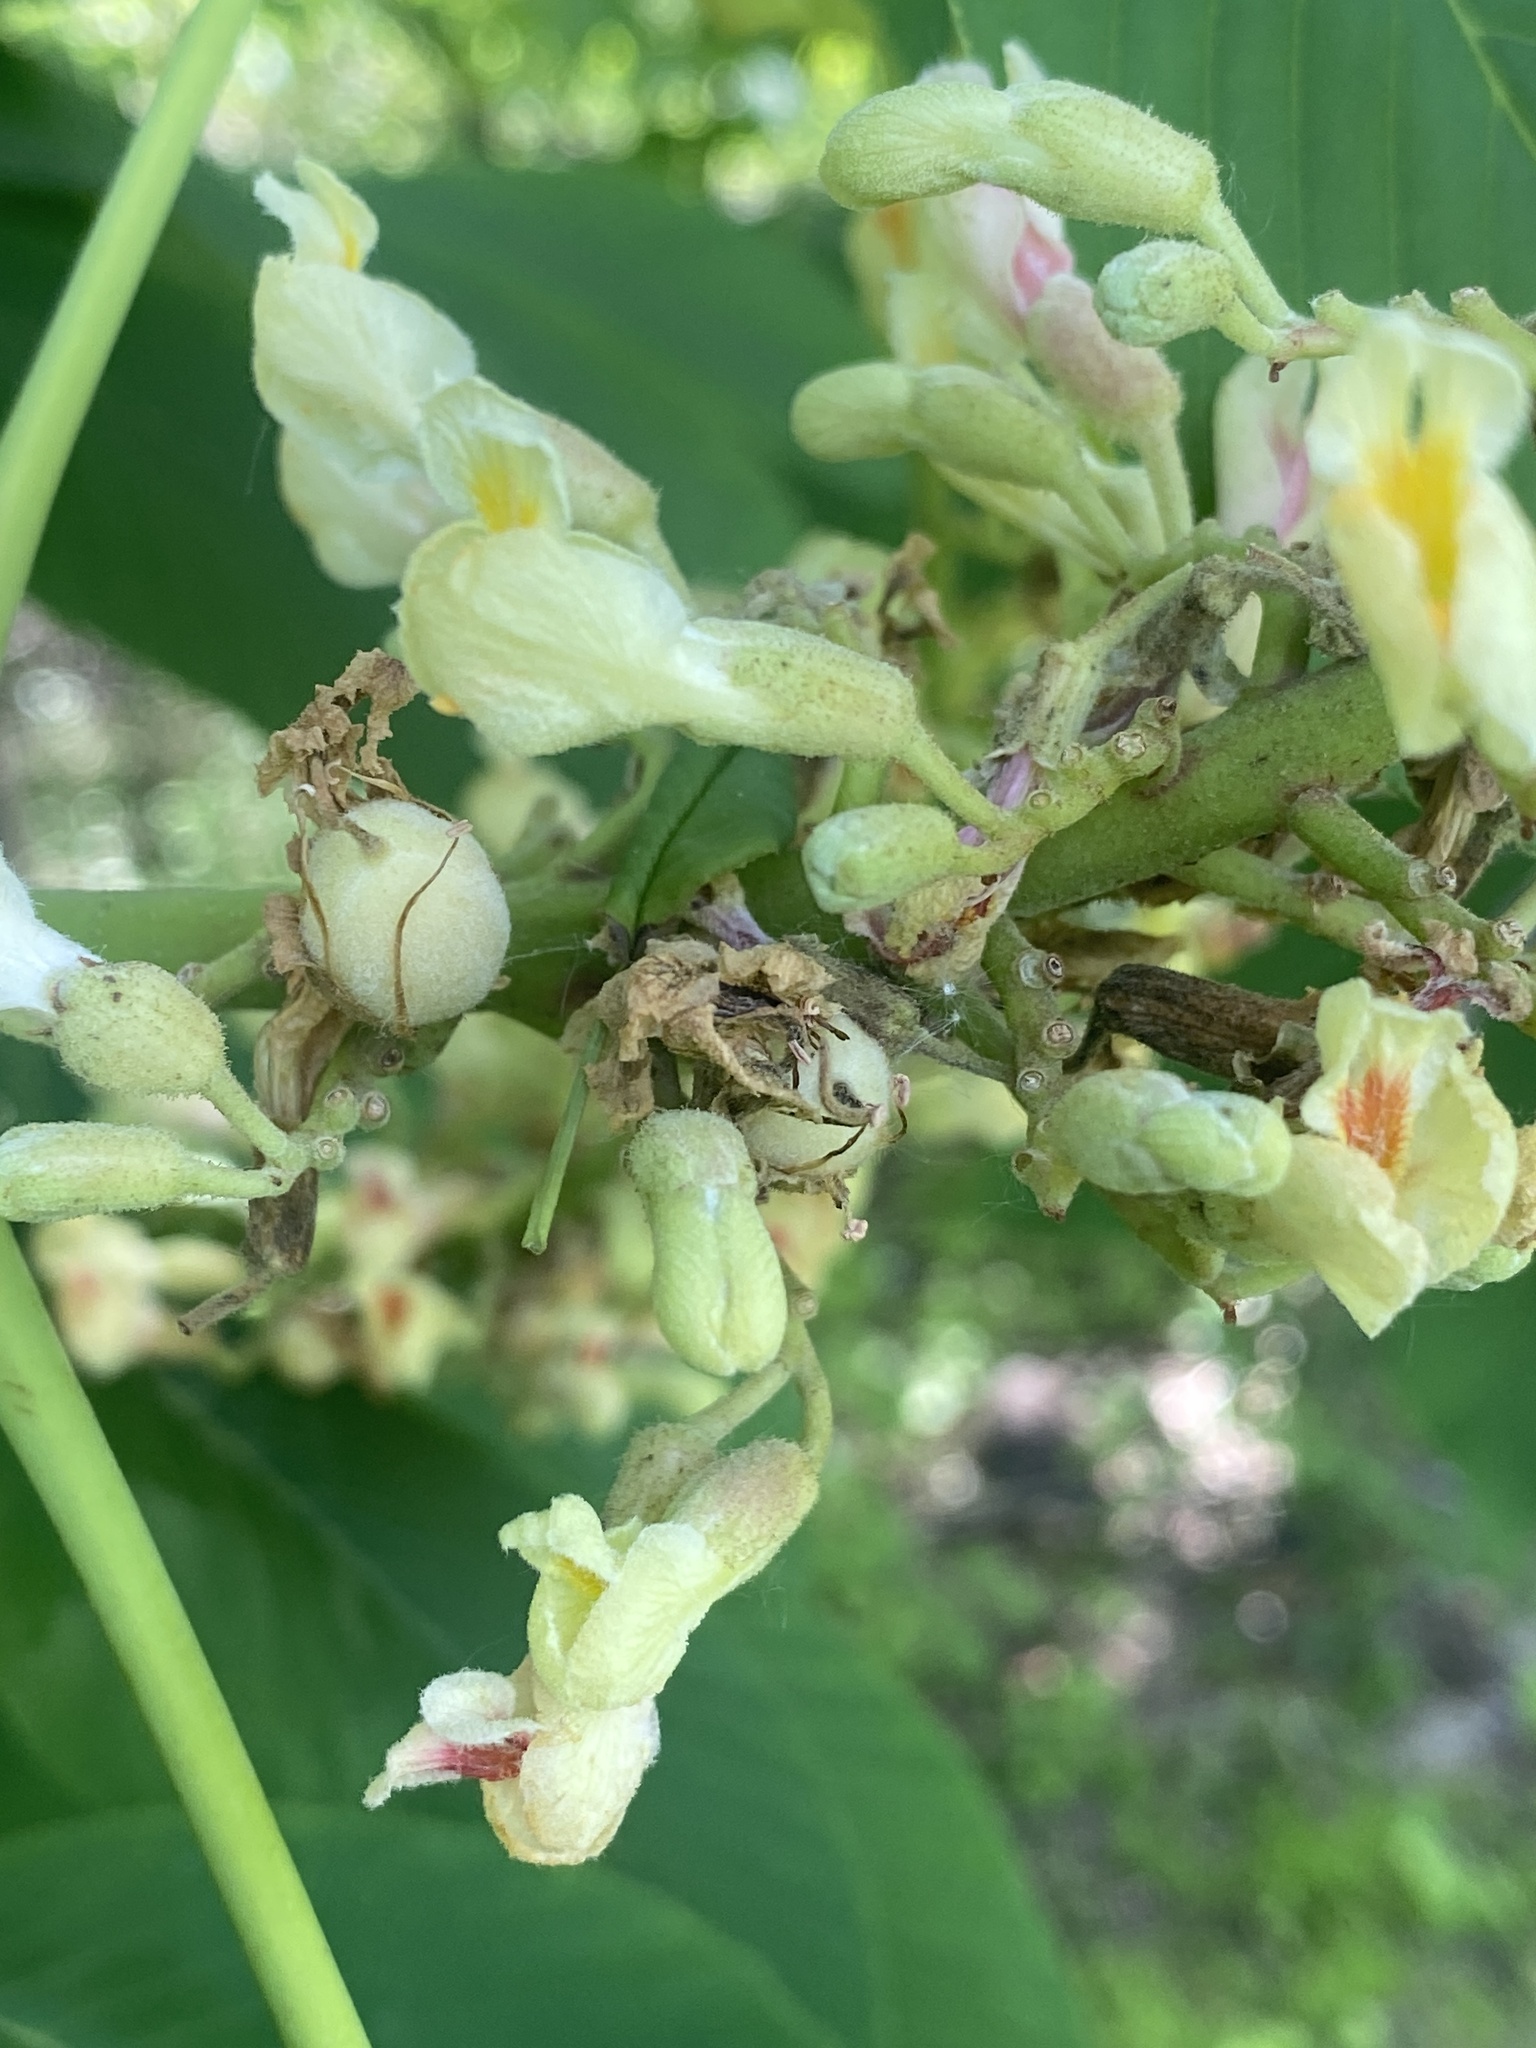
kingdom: Plantae
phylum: Tracheophyta
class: Magnoliopsida
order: Sapindales
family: Sapindaceae
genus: Aesculus
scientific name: Aesculus flava
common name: Yellow buckeye
